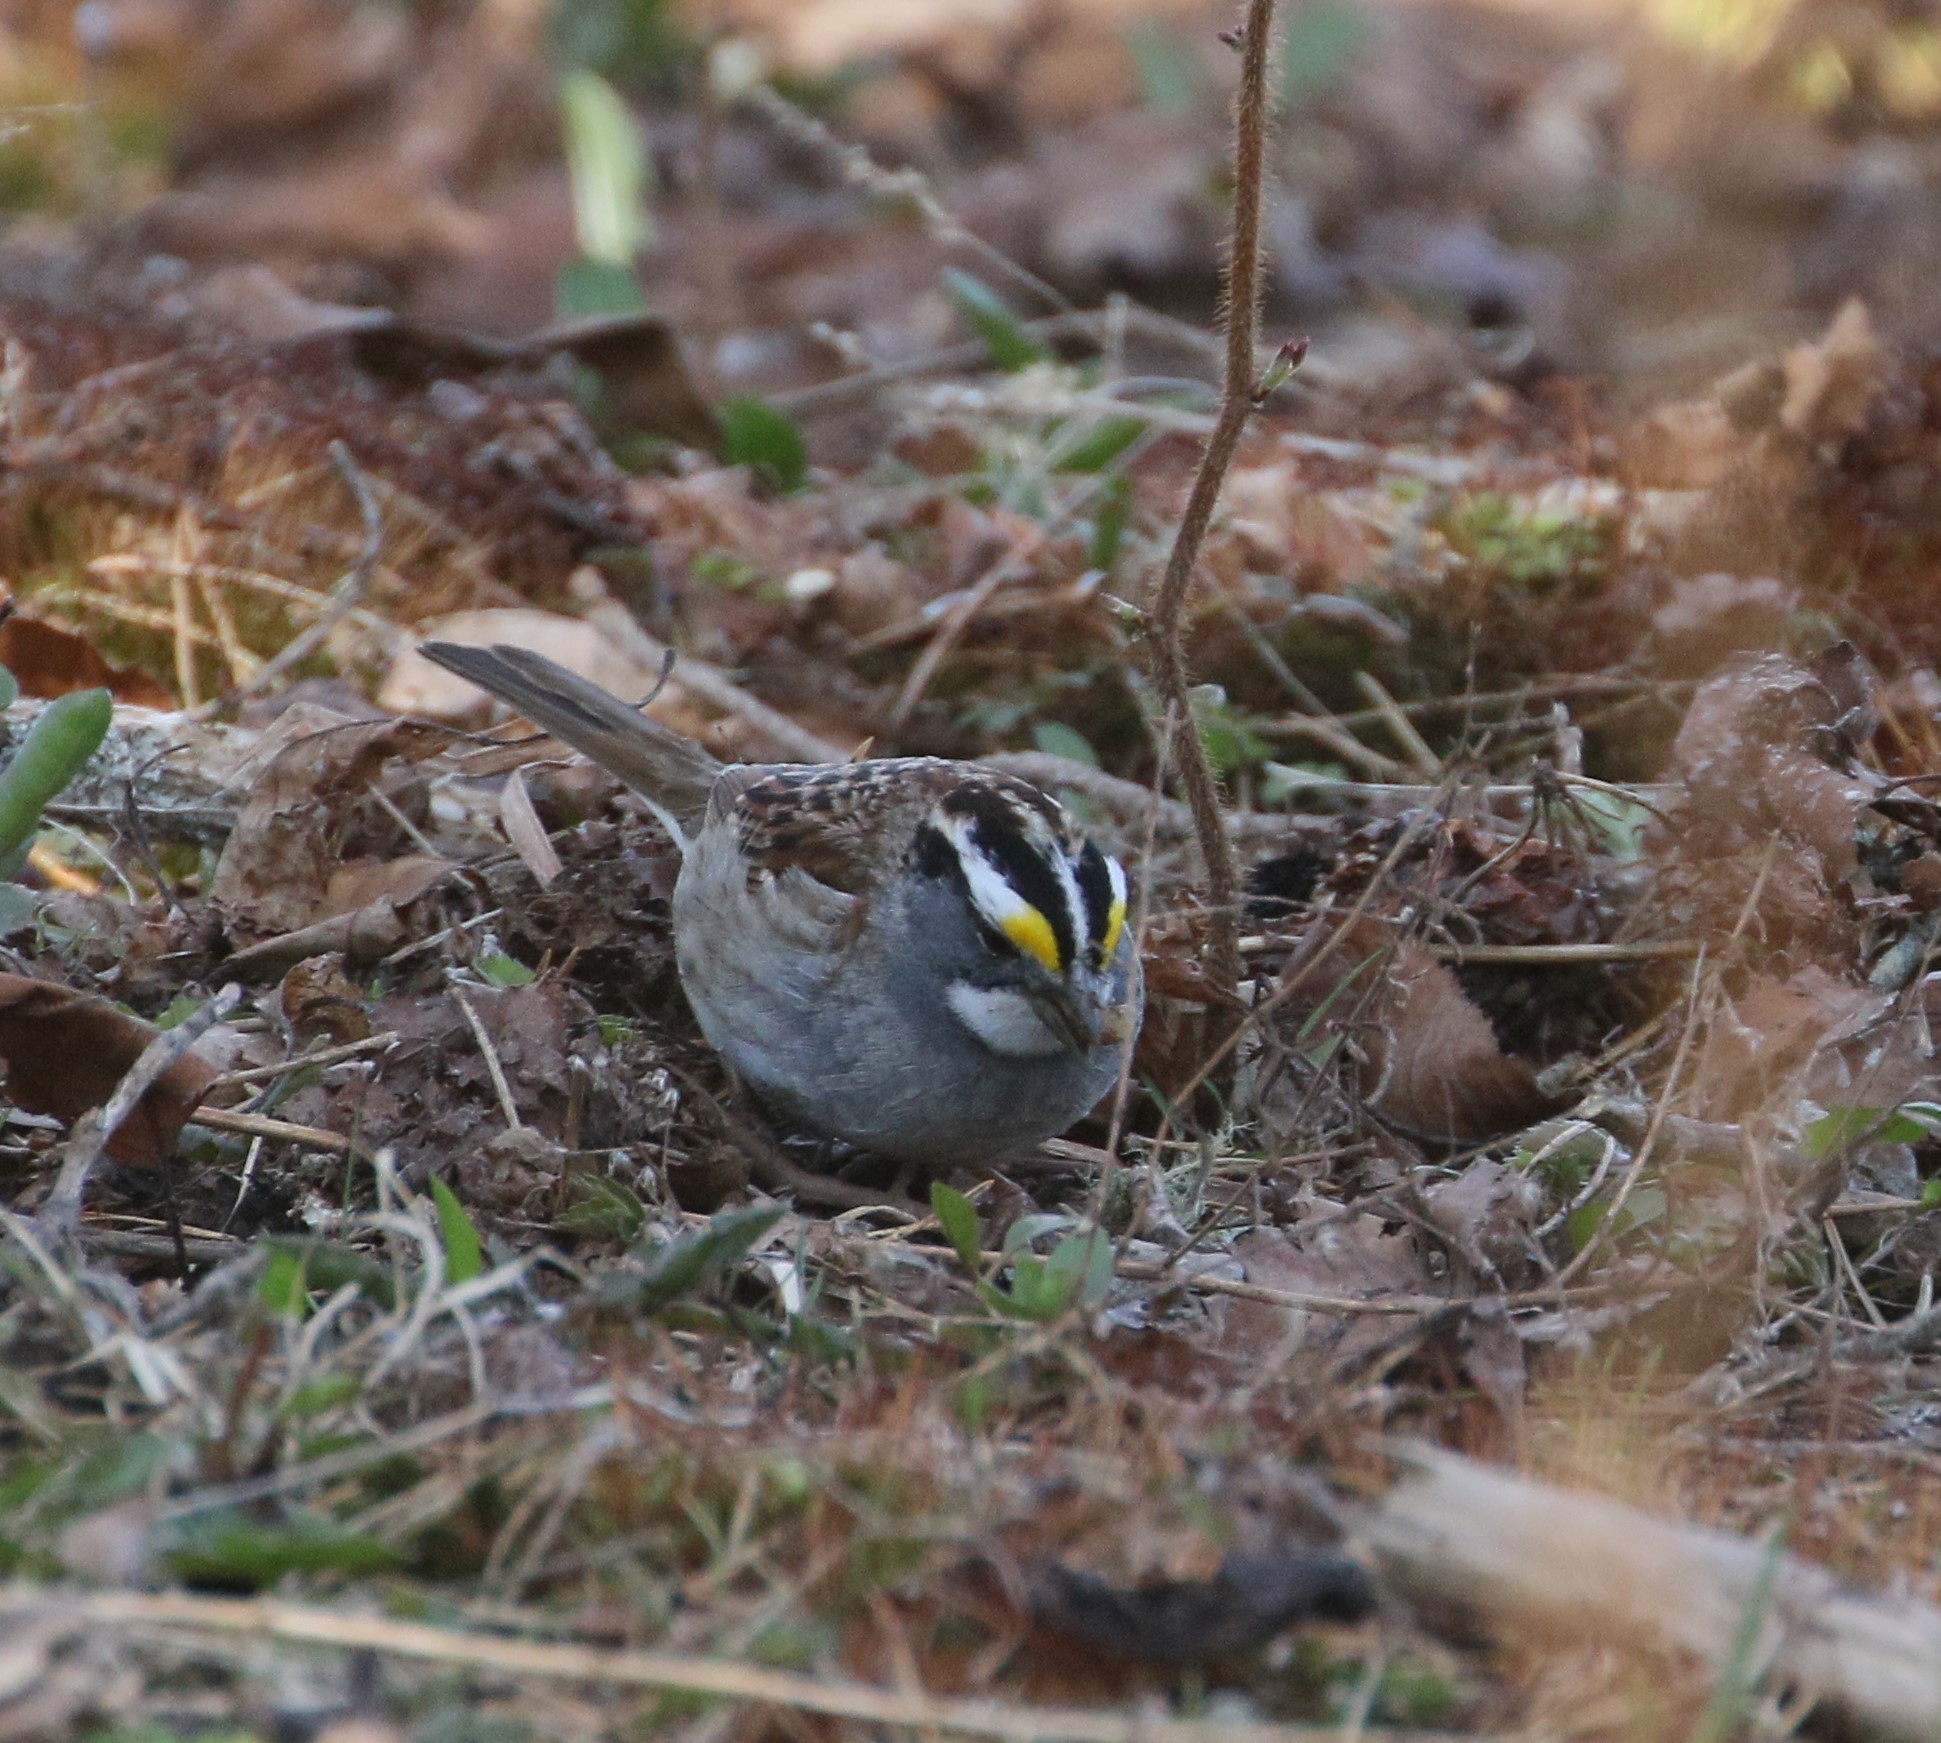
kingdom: Animalia
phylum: Chordata
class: Aves
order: Passeriformes
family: Passerellidae
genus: Zonotrichia
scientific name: Zonotrichia albicollis
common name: White-throated sparrow
